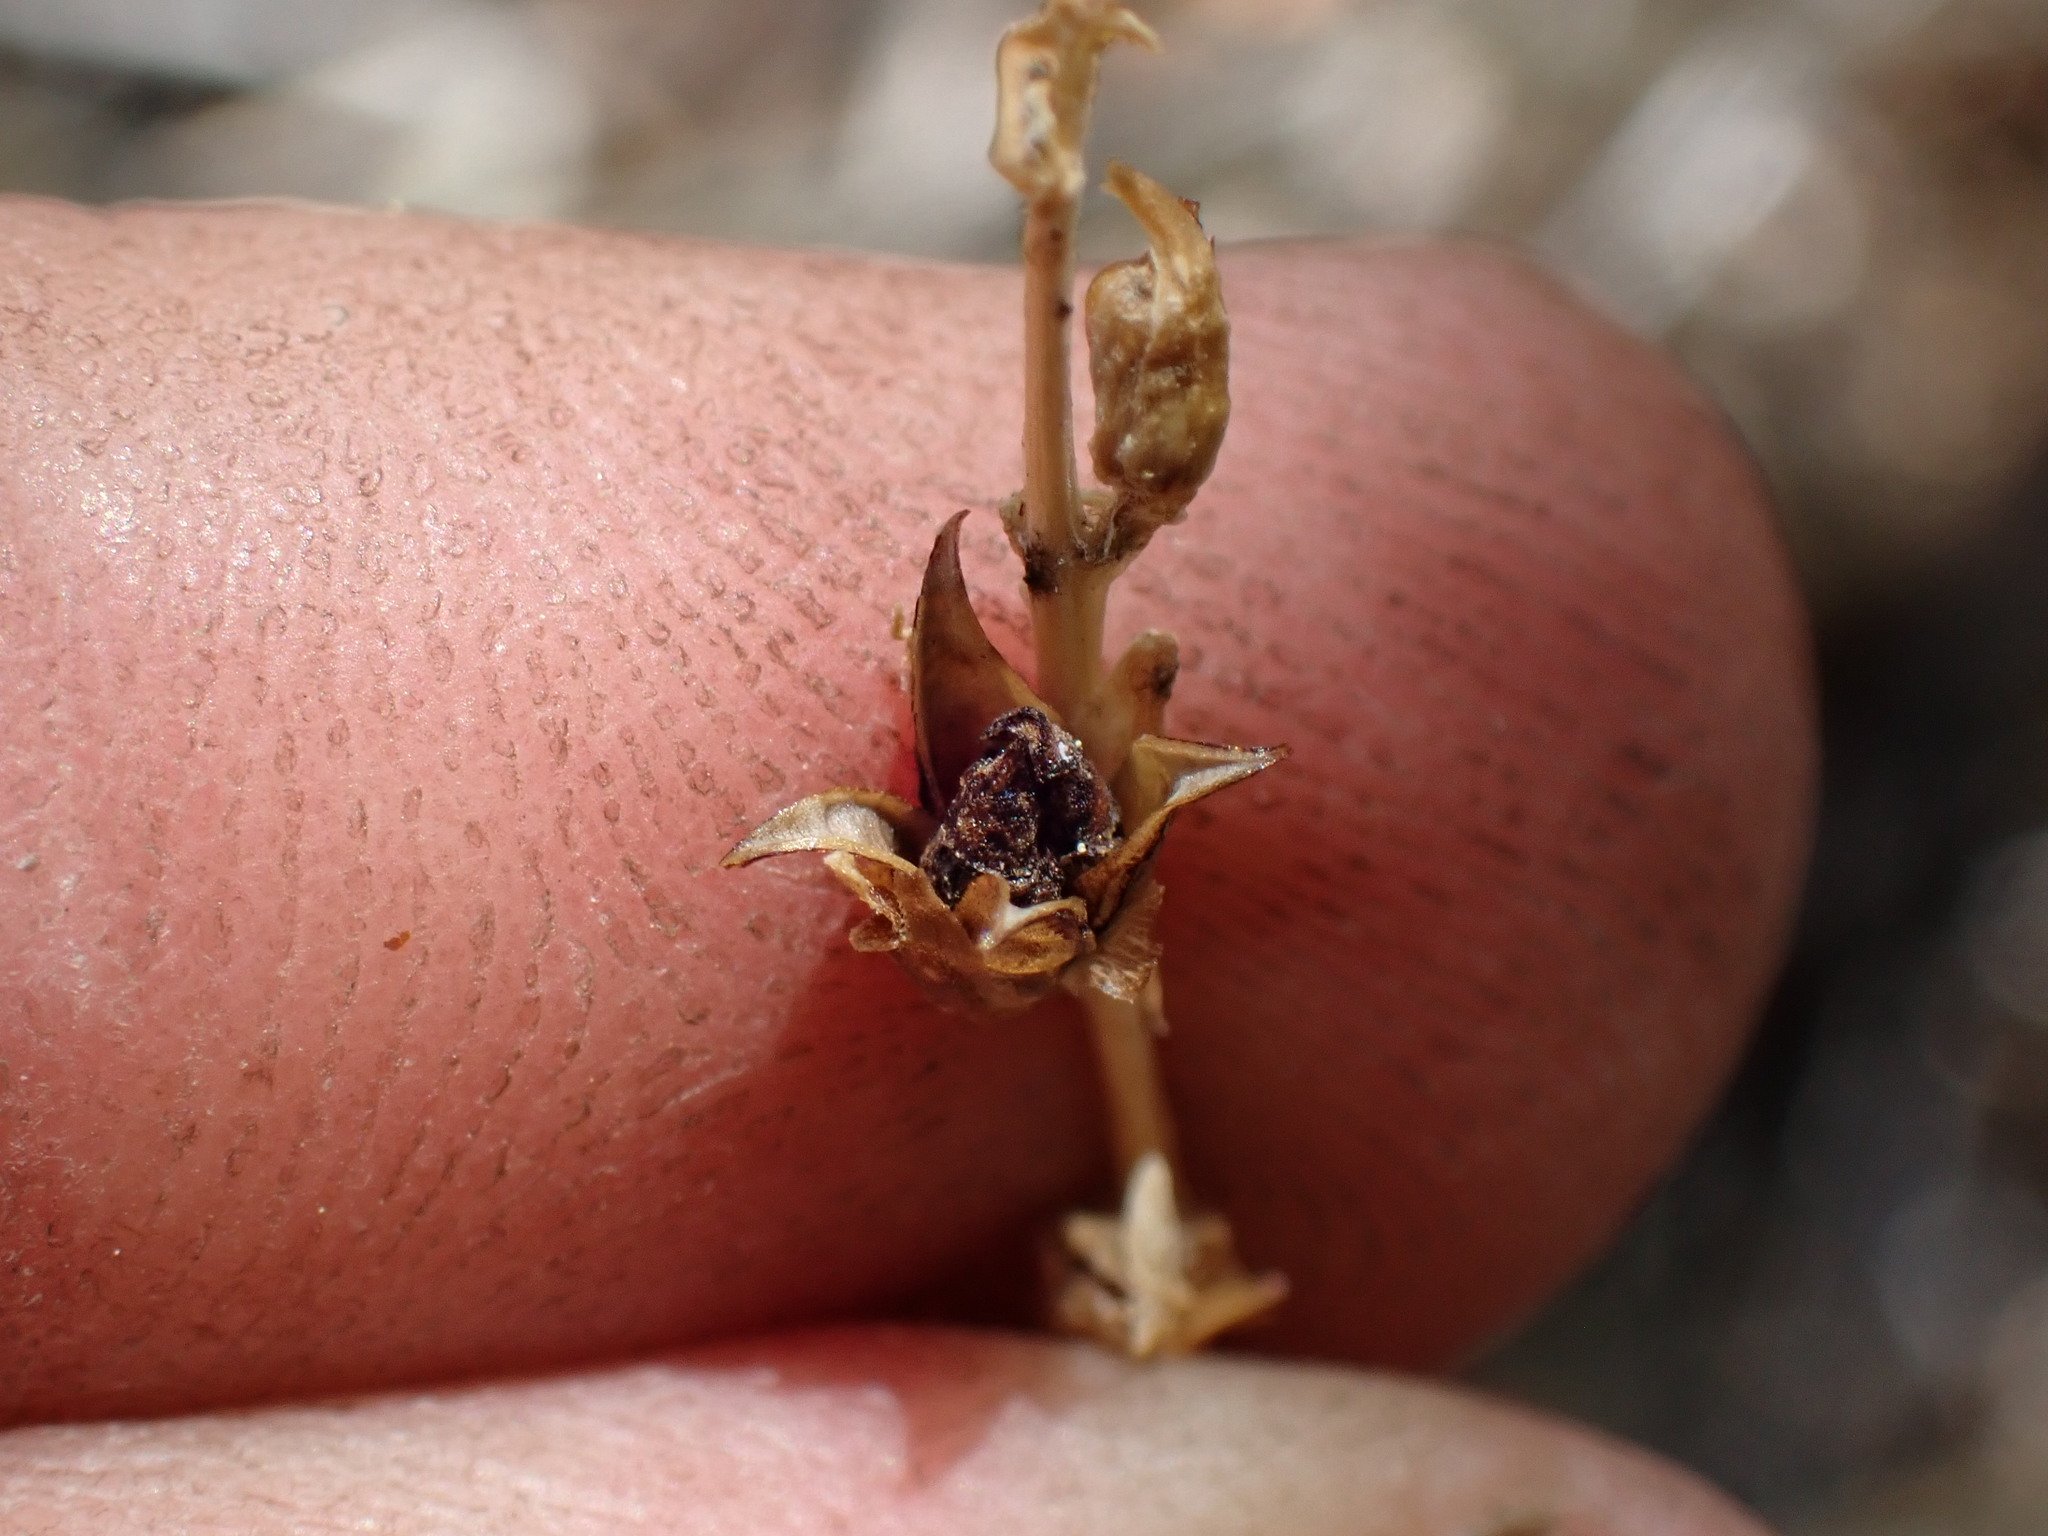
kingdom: Plantae
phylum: Tracheophyta
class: Magnoliopsida
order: Lamiales
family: Plantaginaceae
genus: Keckiella
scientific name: Keckiella rothrockii
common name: Rothrock's keckiella
